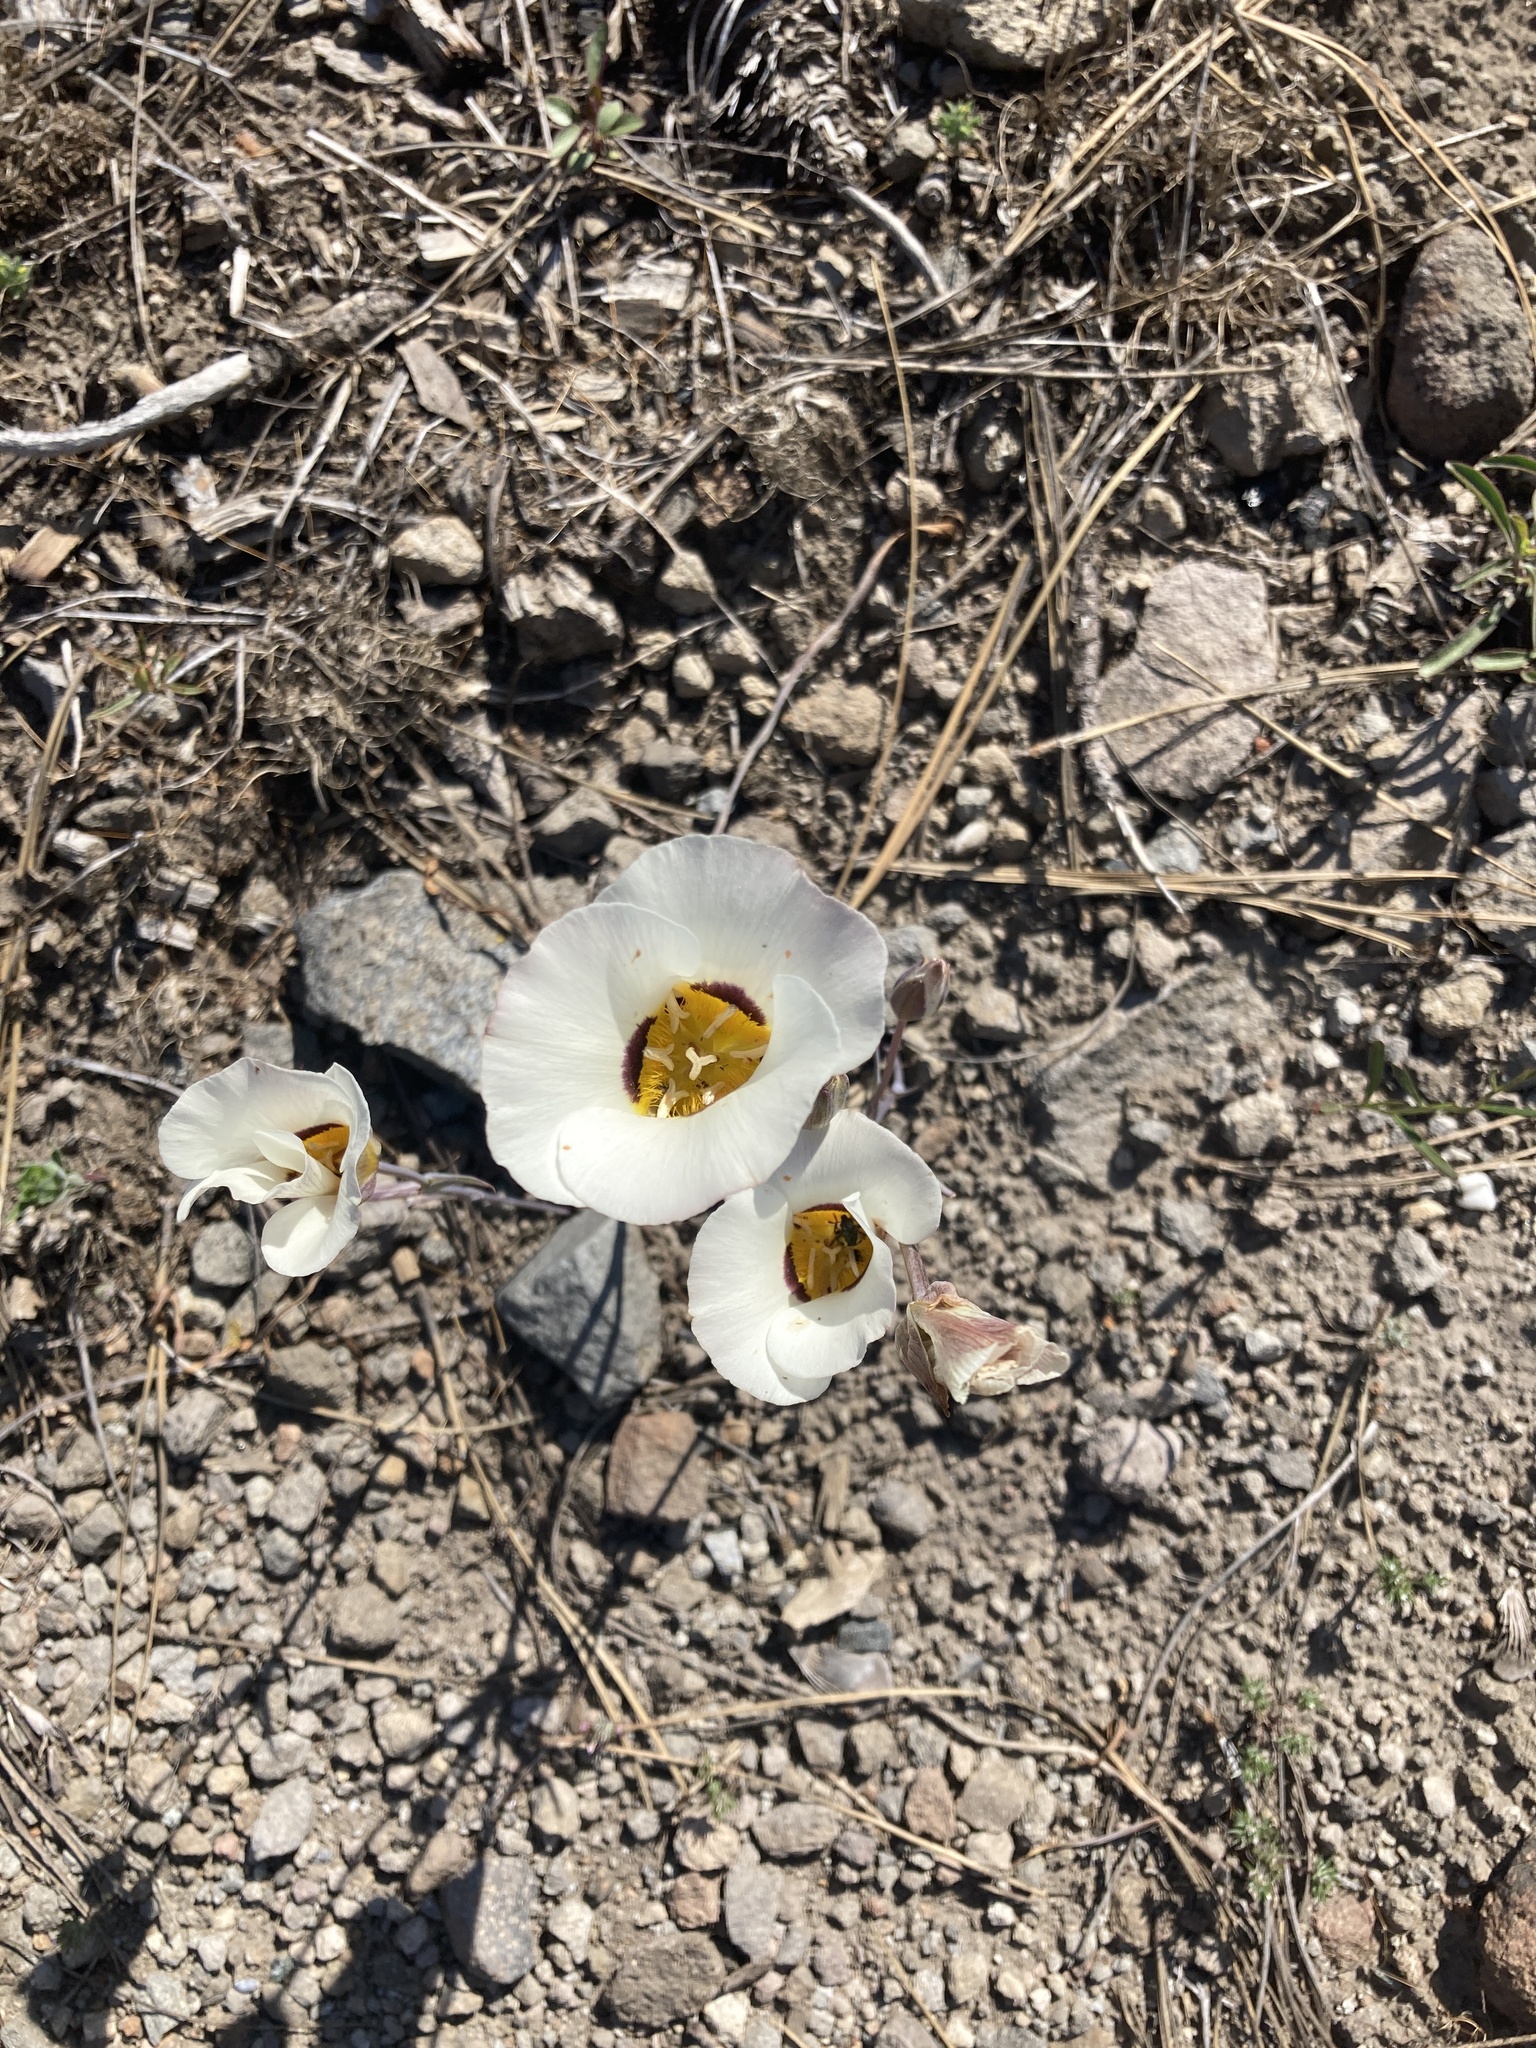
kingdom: Plantae
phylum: Tracheophyta
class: Liliopsida
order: Liliales
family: Liliaceae
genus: Calochortus
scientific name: Calochortus leichtlinii
